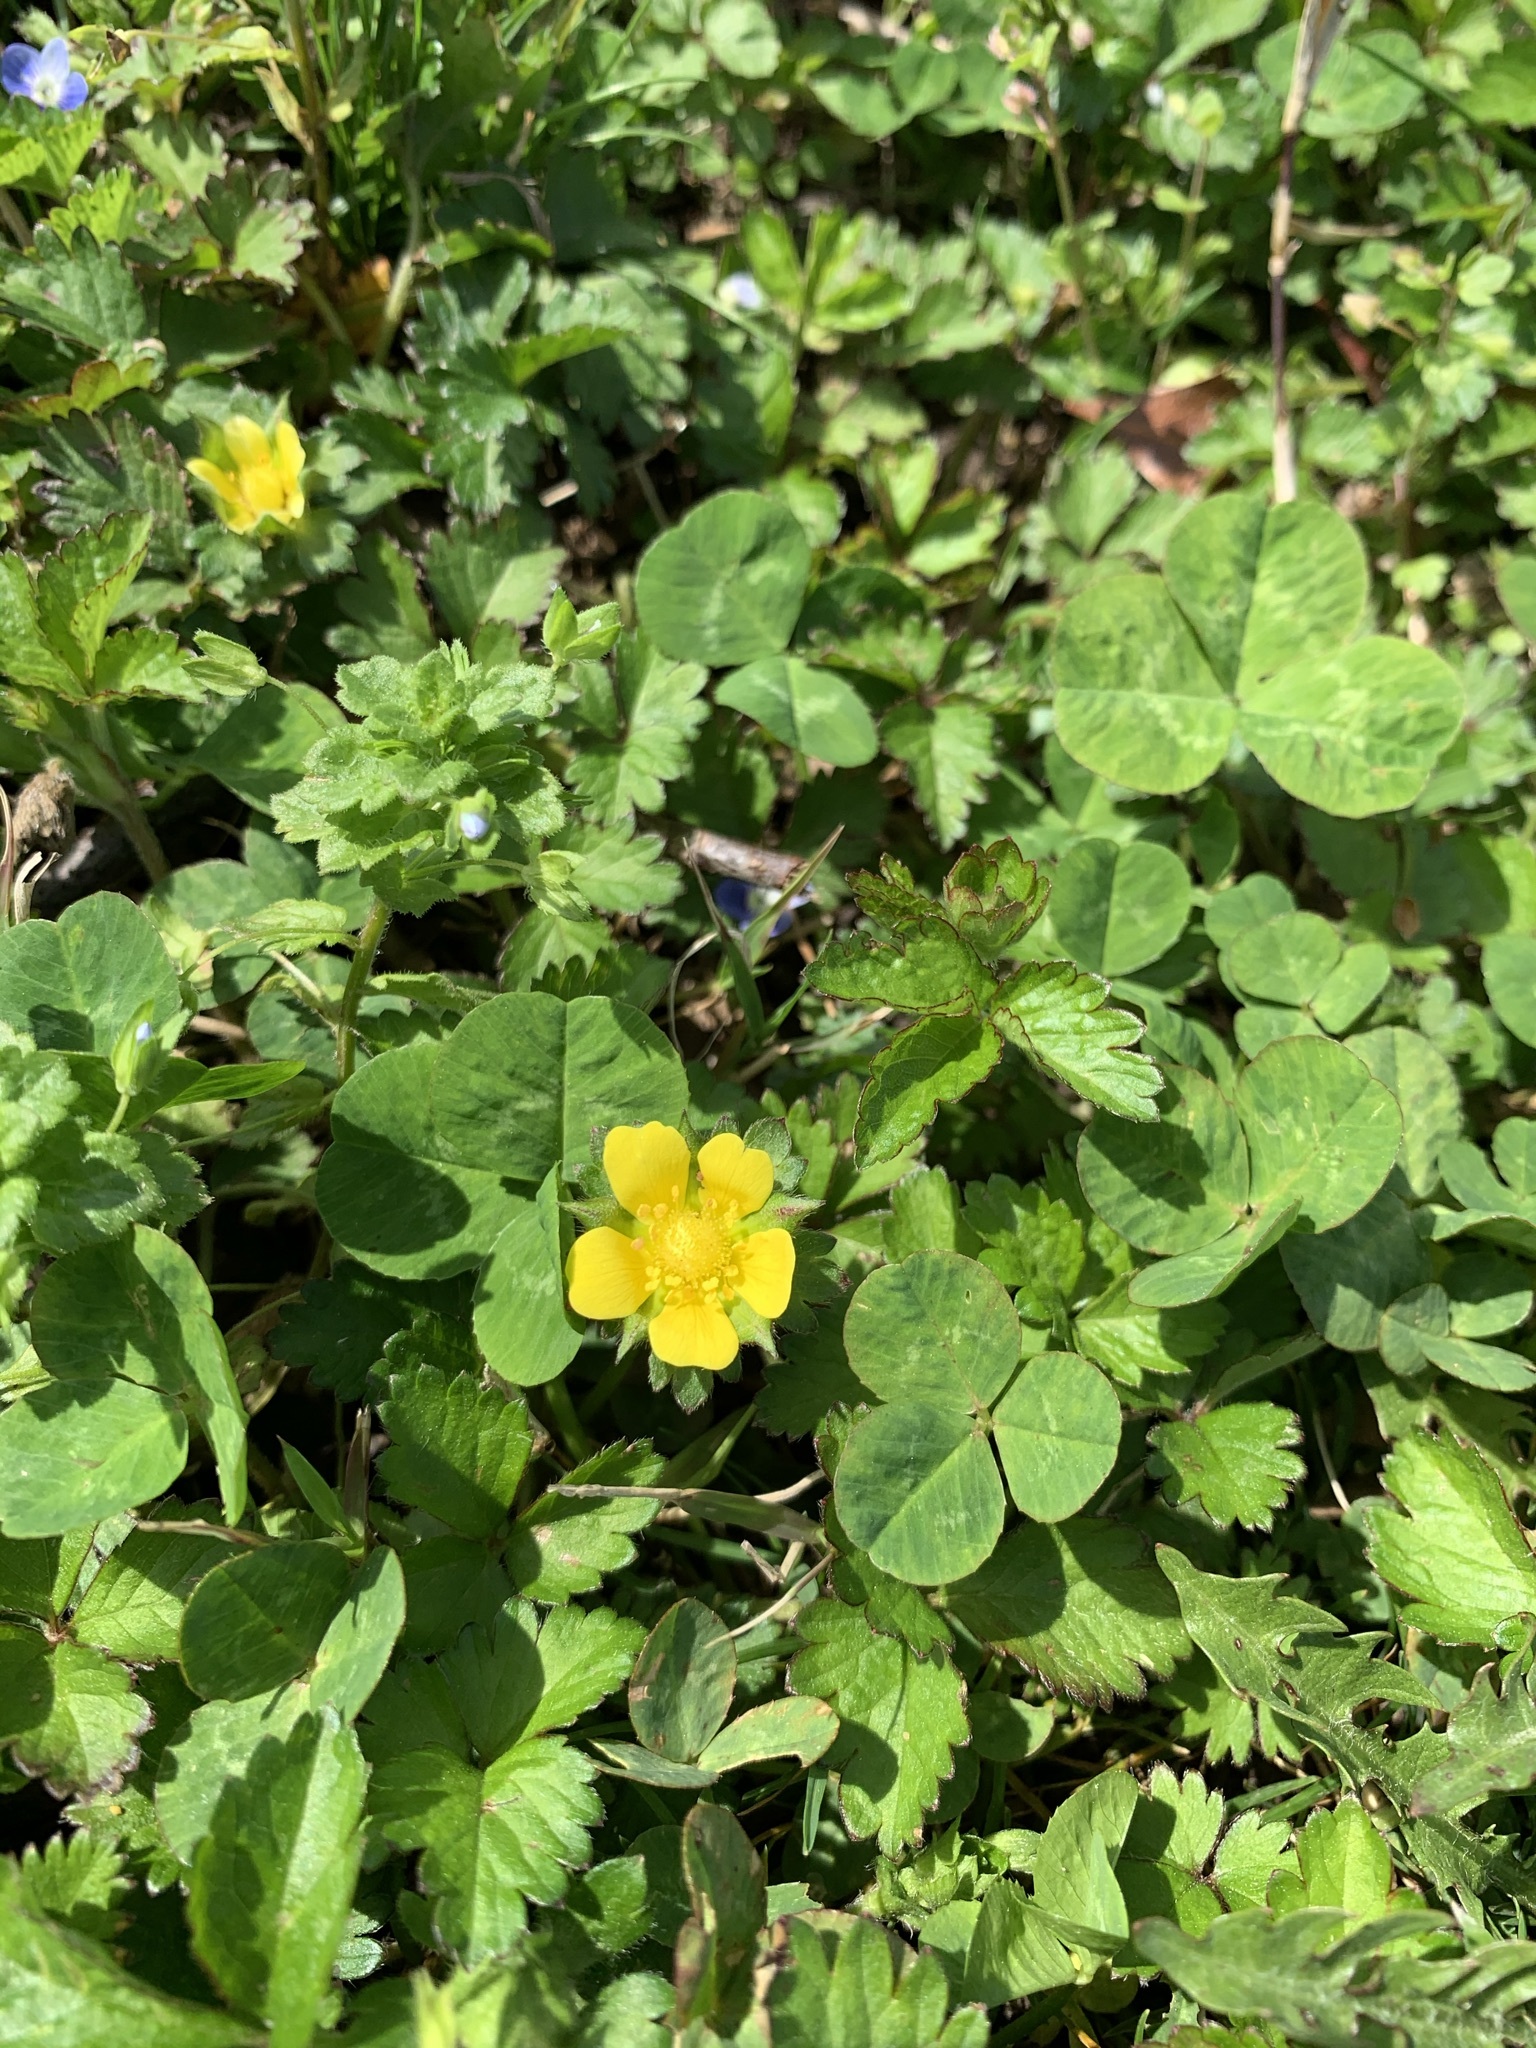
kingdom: Plantae
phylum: Tracheophyta
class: Magnoliopsida
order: Rosales
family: Rosaceae
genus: Potentilla
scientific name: Potentilla indica
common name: Yellow-flowered strawberry
